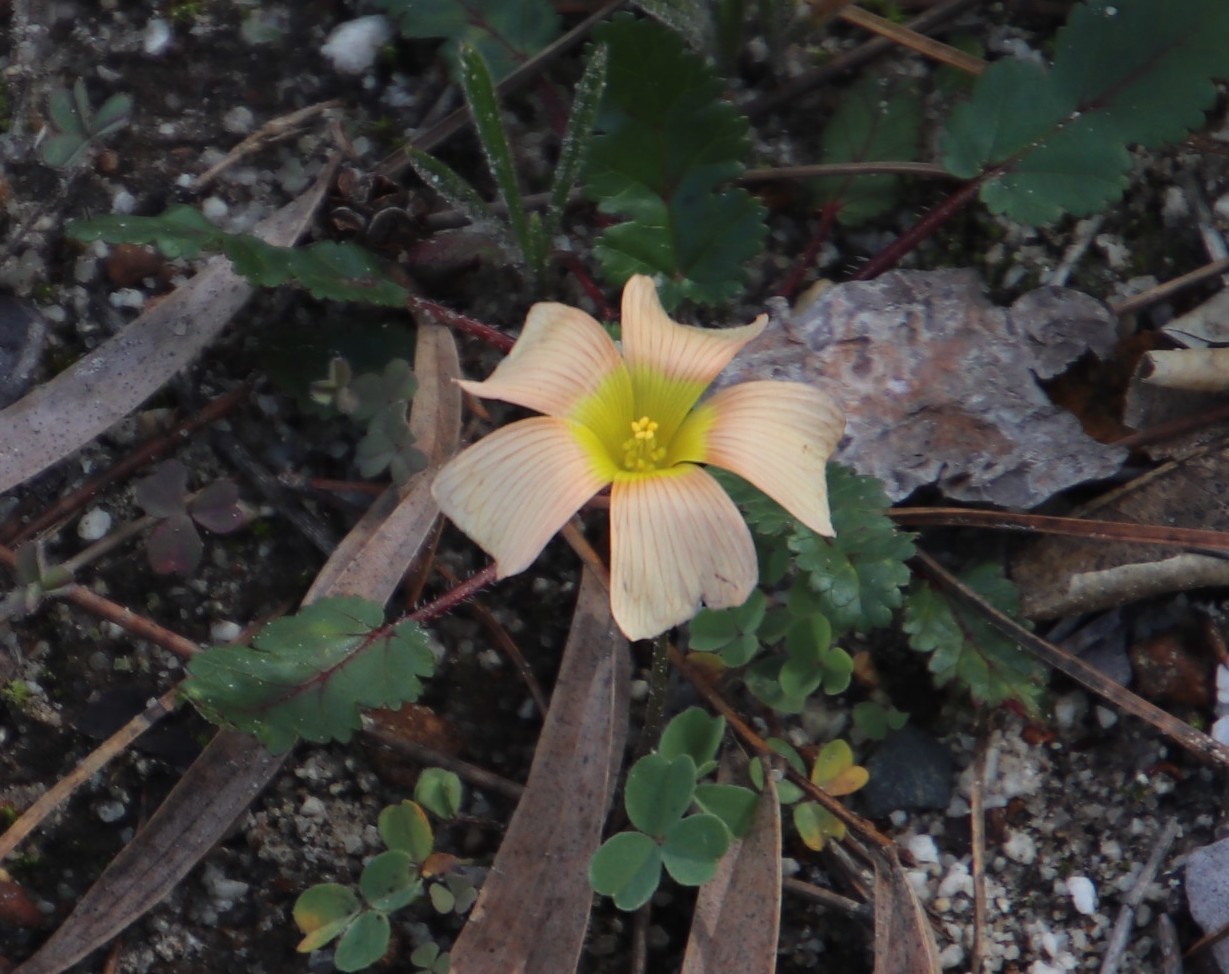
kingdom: Plantae
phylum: Tracheophyta
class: Magnoliopsida
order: Oxalidales
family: Oxalidaceae
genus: Oxalis
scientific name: Oxalis obtusa
